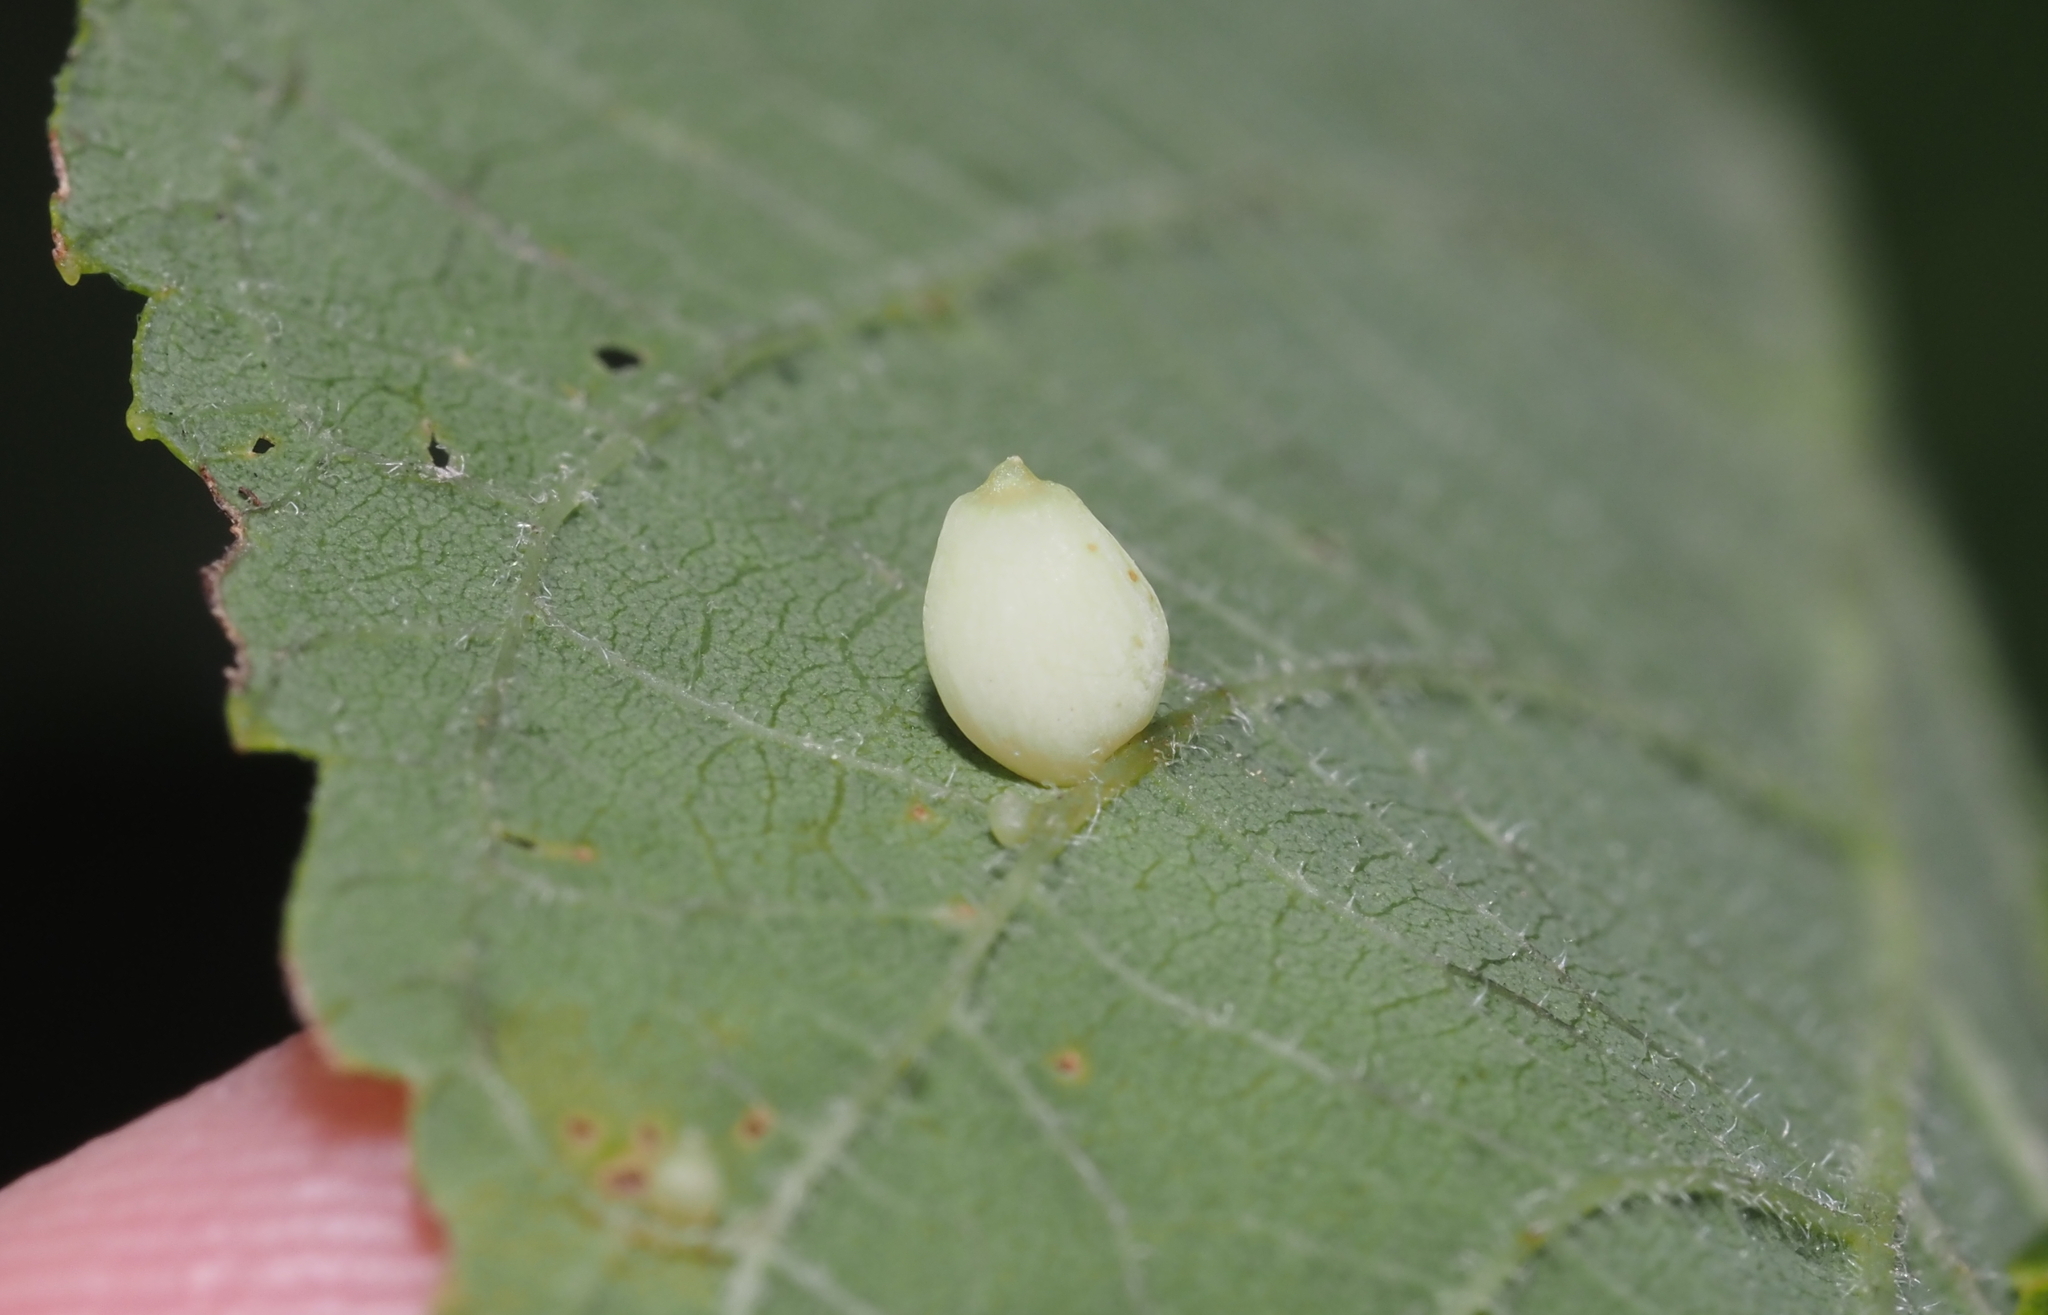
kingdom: Animalia
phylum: Arthropoda
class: Insecta
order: Diptera
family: Cecidomyiidae
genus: Celticecis
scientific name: Celticecis globosa
